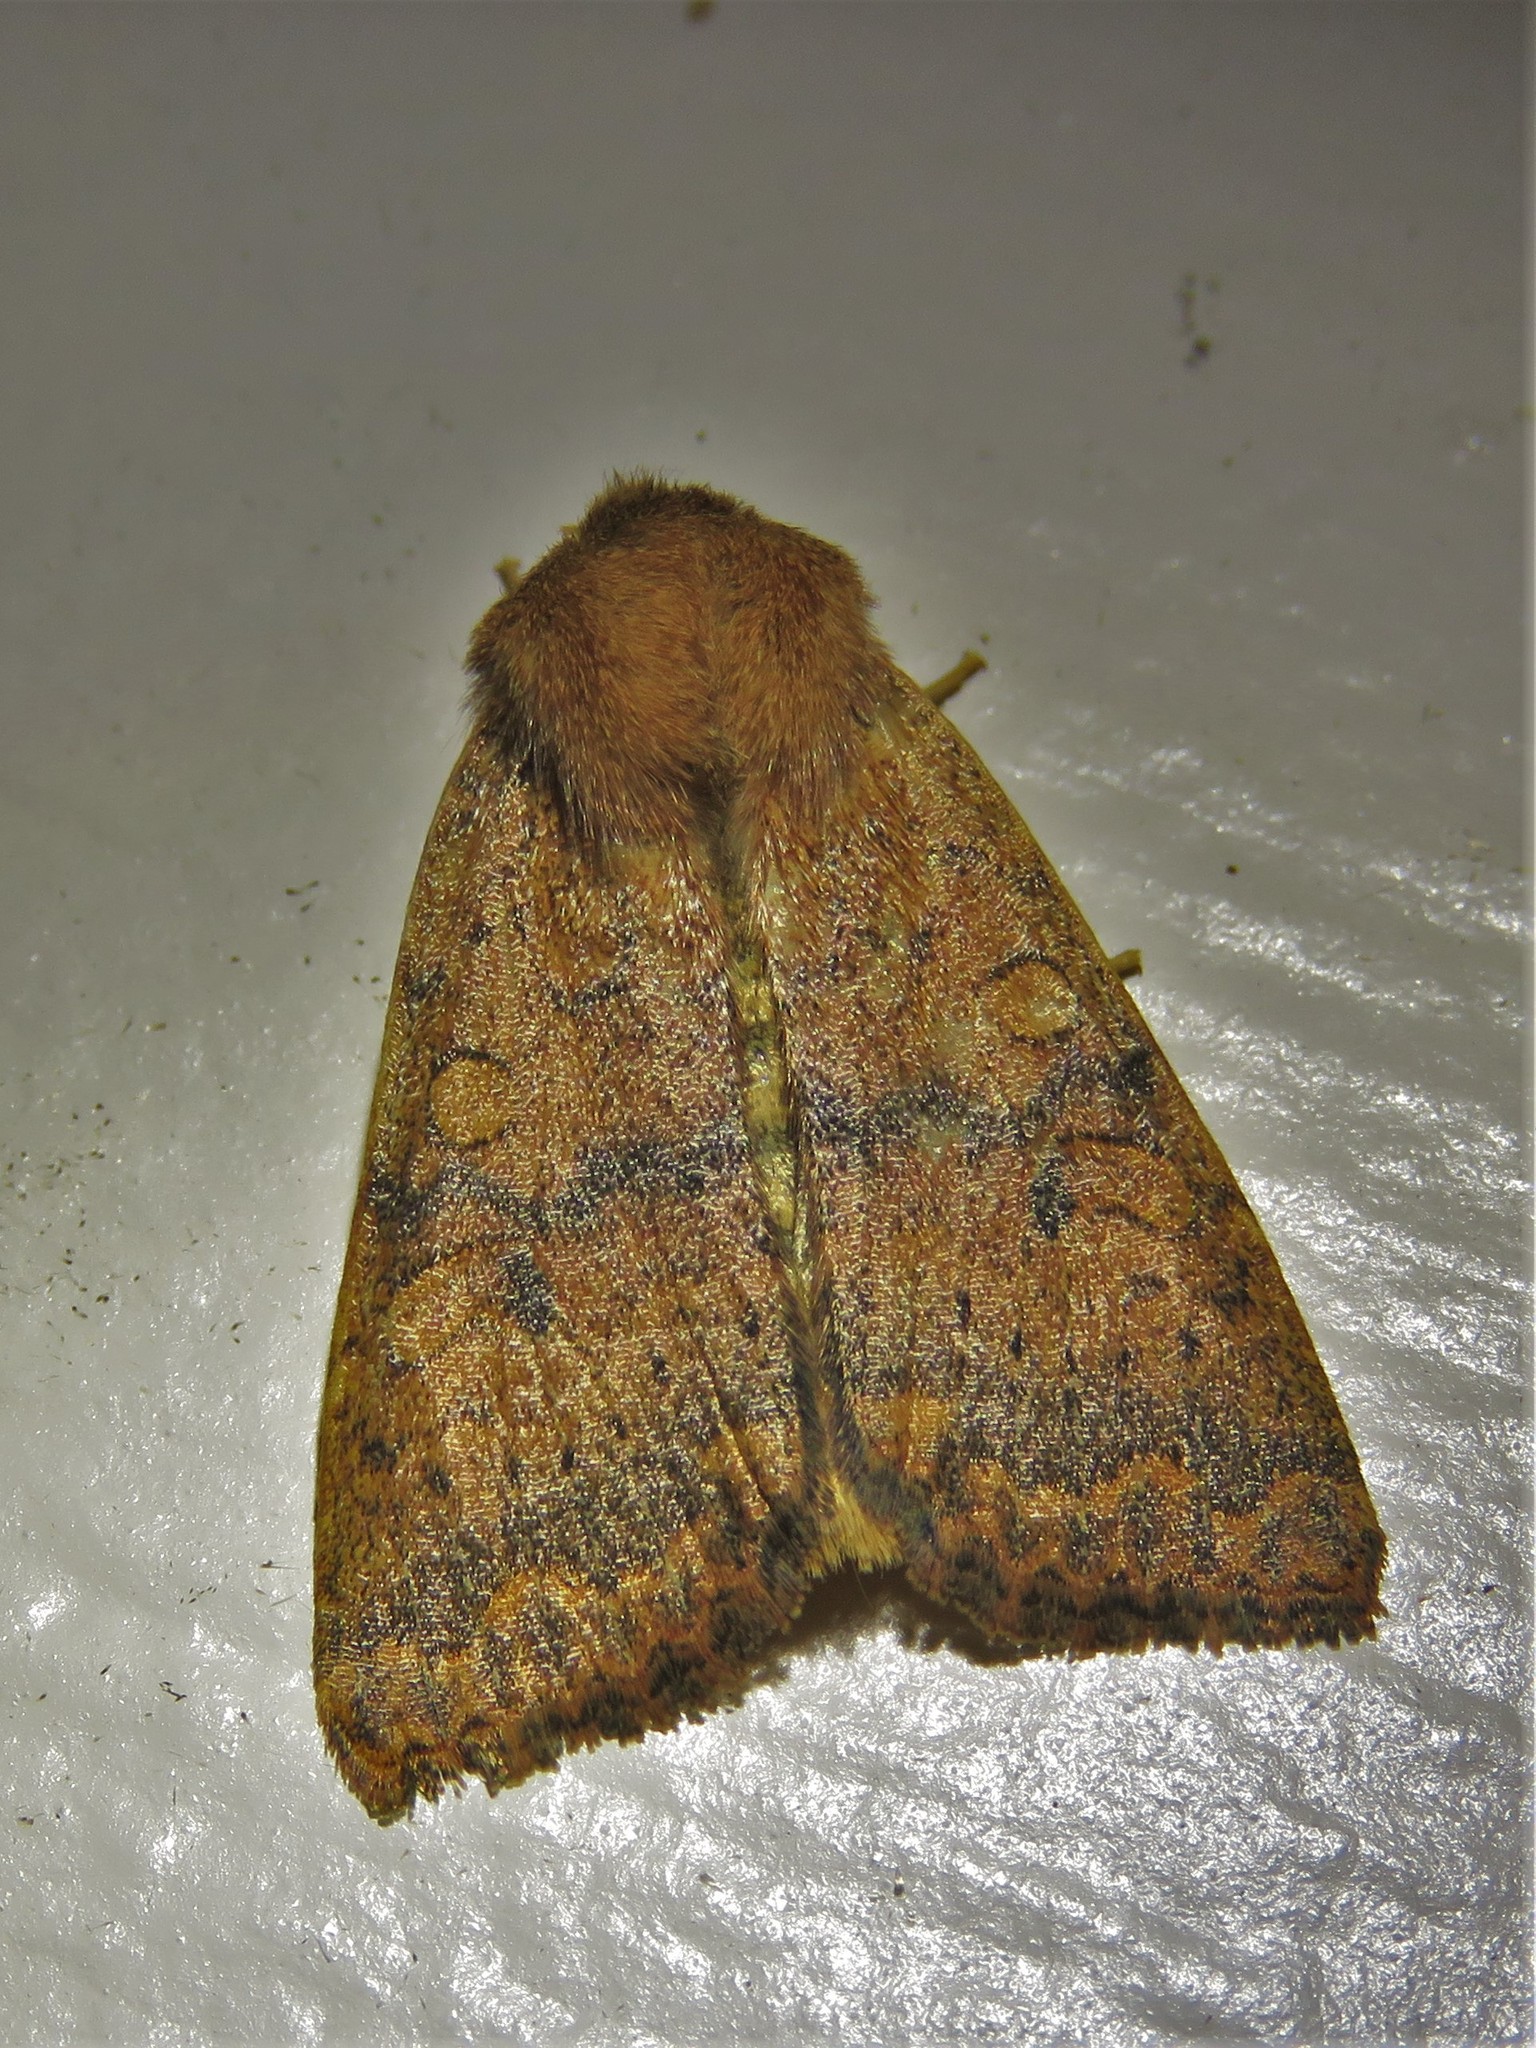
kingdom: Animalia
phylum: Arthropoda
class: Insecta
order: Lepidoptera
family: Noctuidae
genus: Agrochola
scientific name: Agrochola bicolorago
